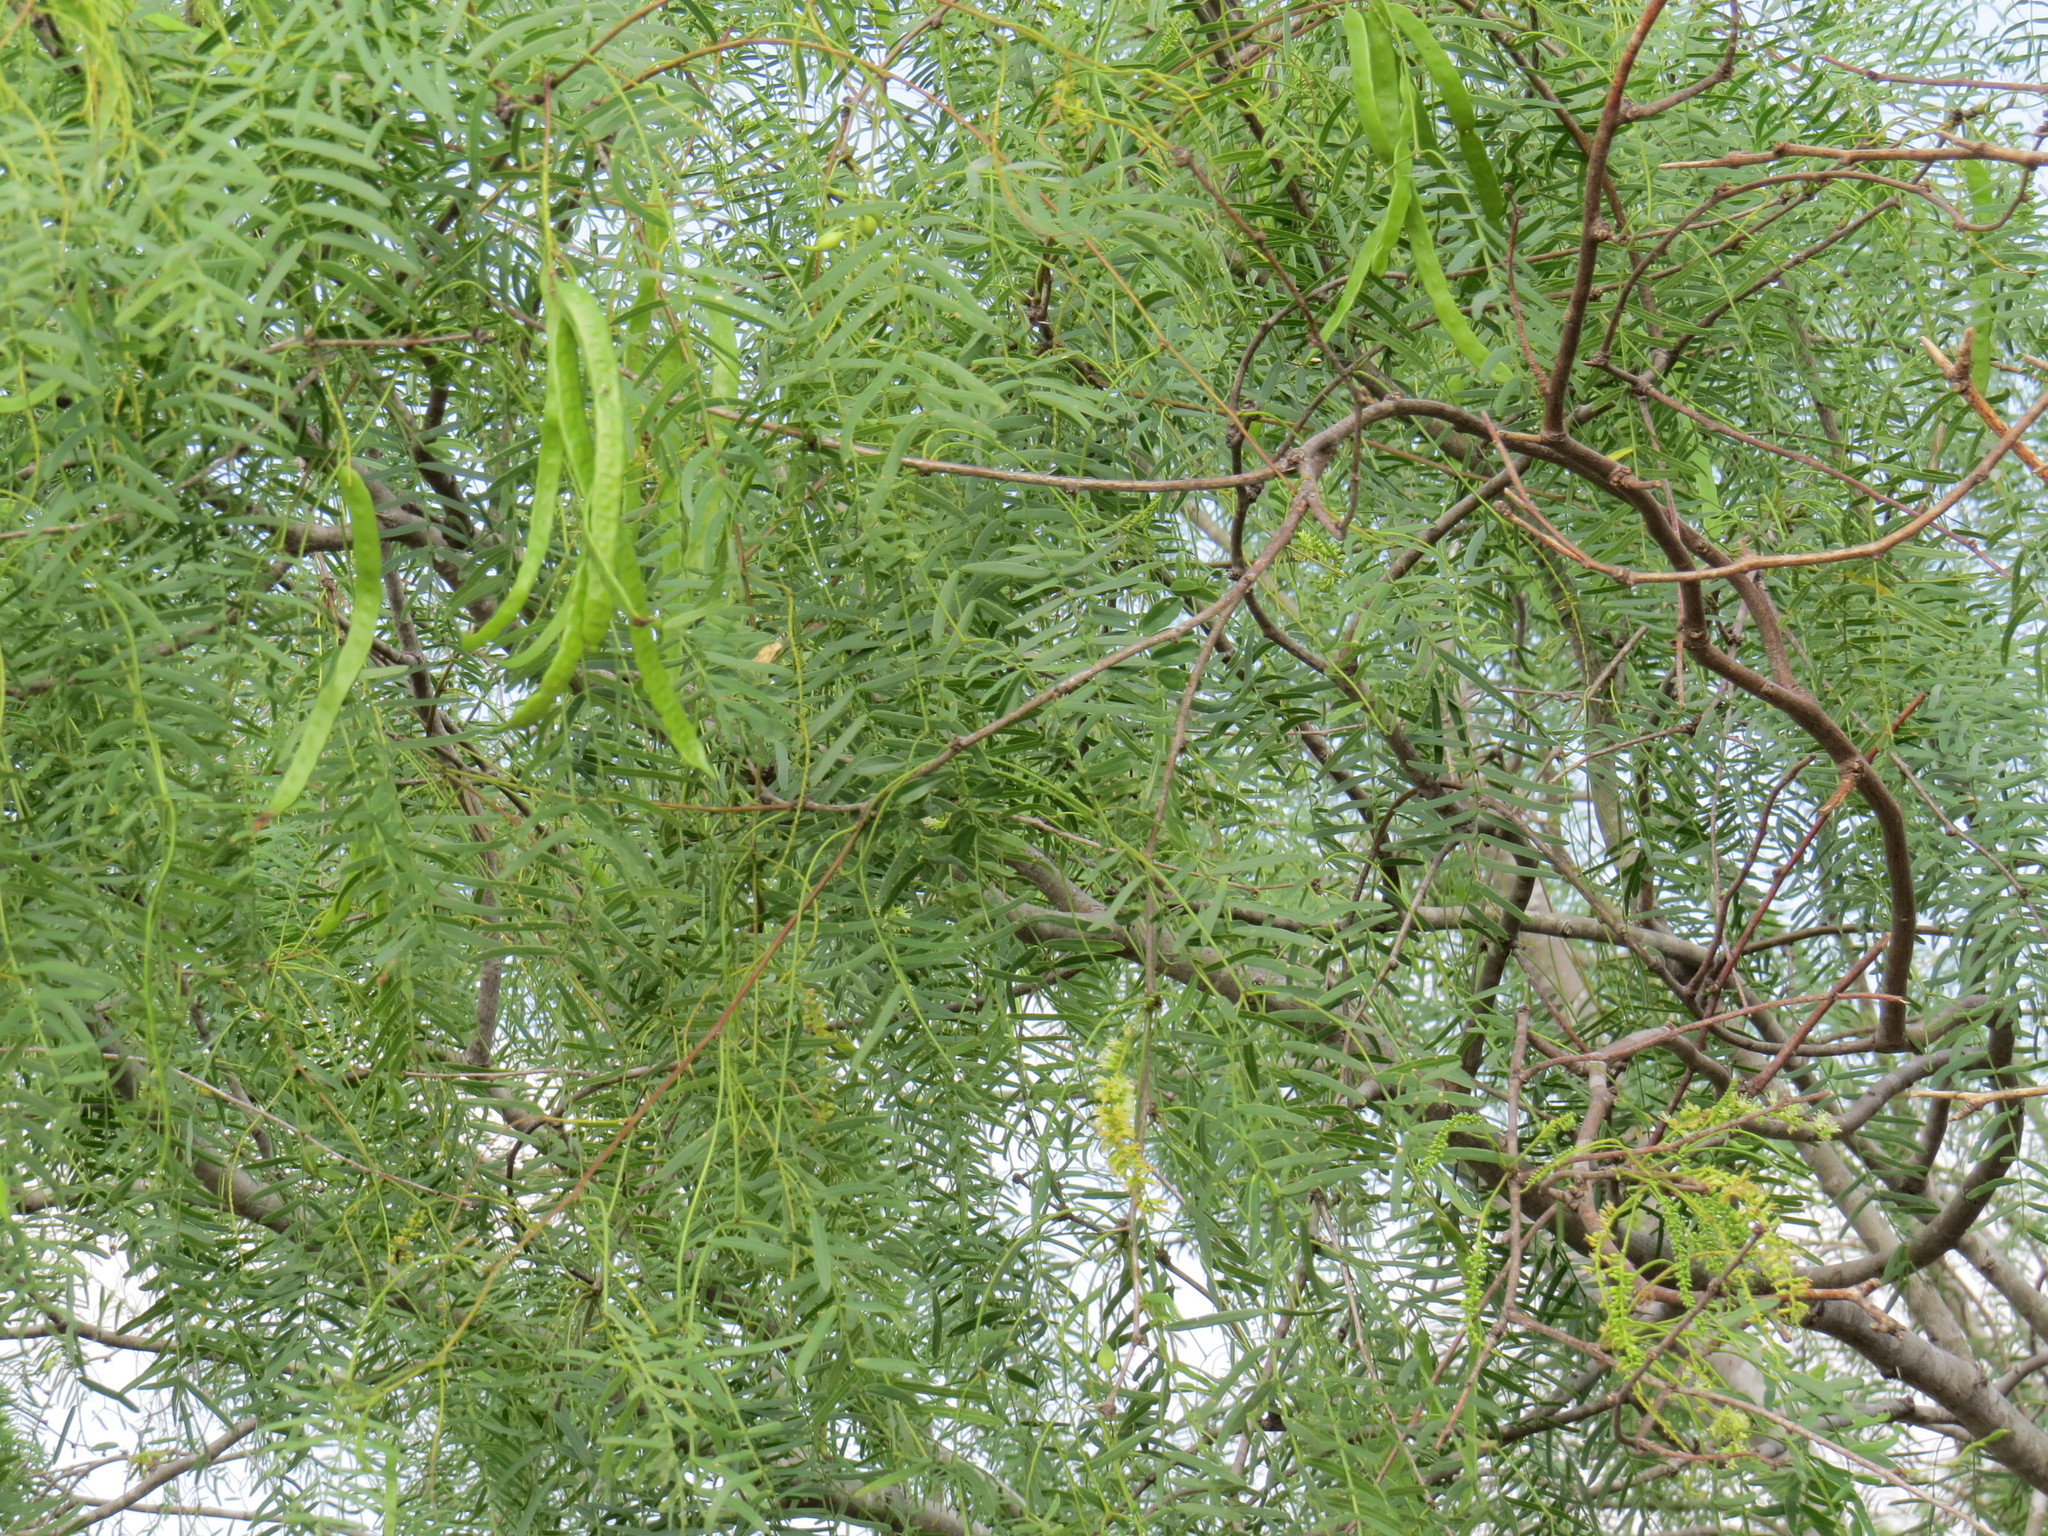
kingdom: Plantae
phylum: Tracheophyta
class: Magnoliopsida
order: Fabales
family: Fabaceae
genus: Prosopis
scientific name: Prosopis glandulosa
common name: Honey mesquite
